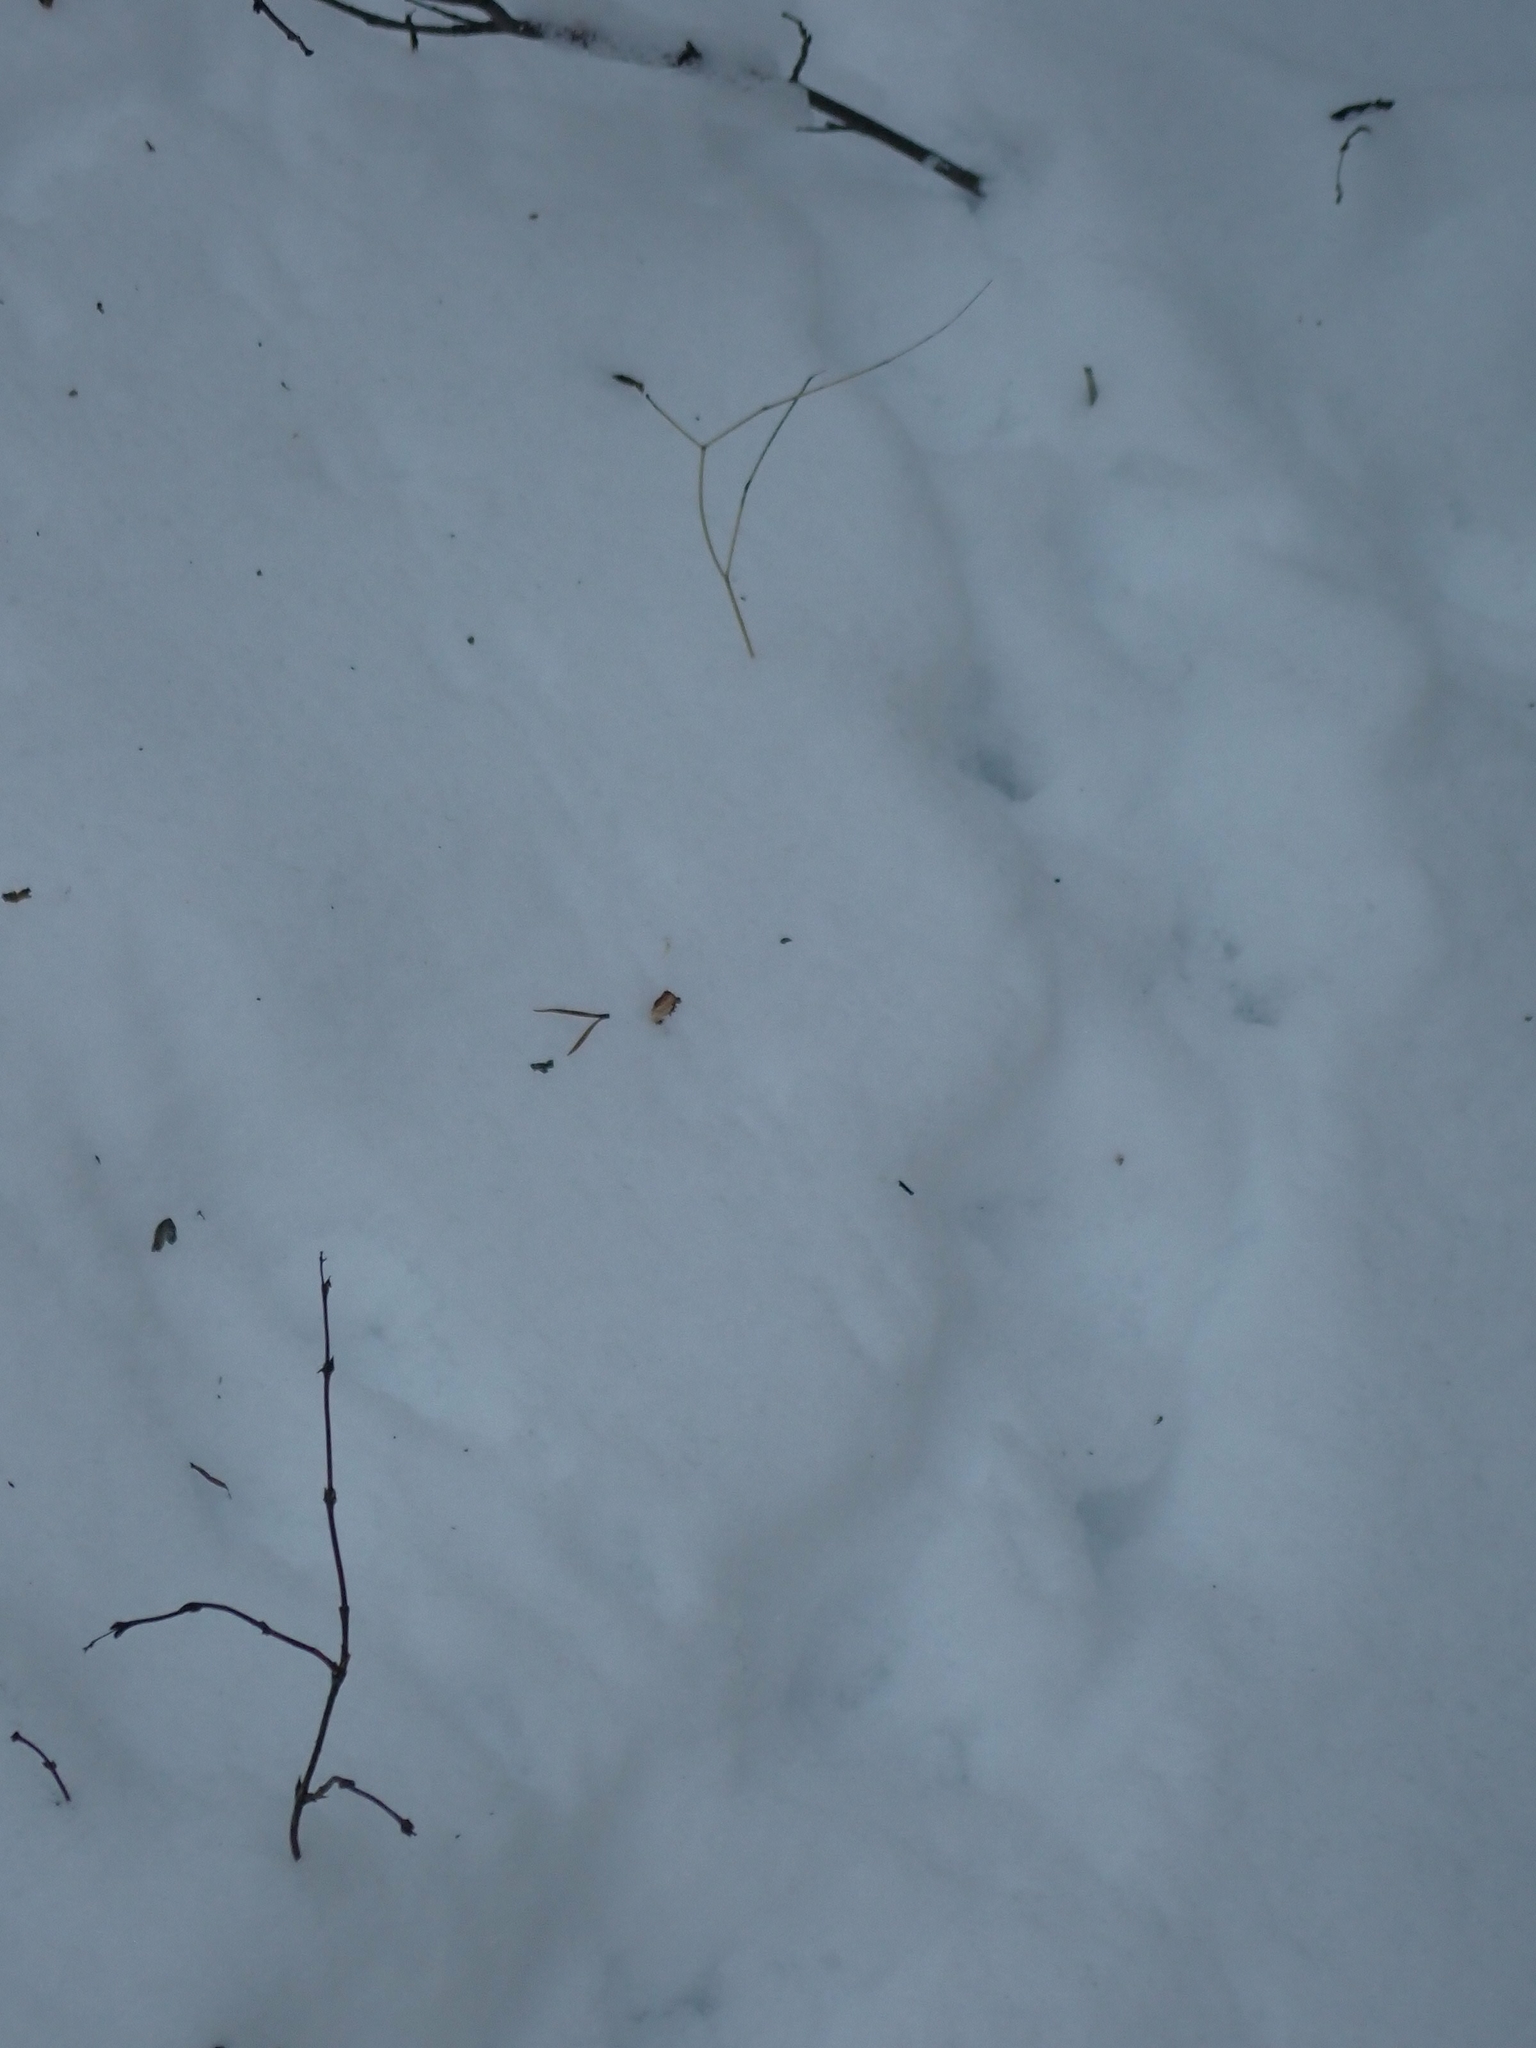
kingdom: Animalia
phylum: Chordata
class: Aves
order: Galliformes
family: Phasianidae
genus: Bonasa
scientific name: Bonasa umbellus
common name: Ruffed grouse
